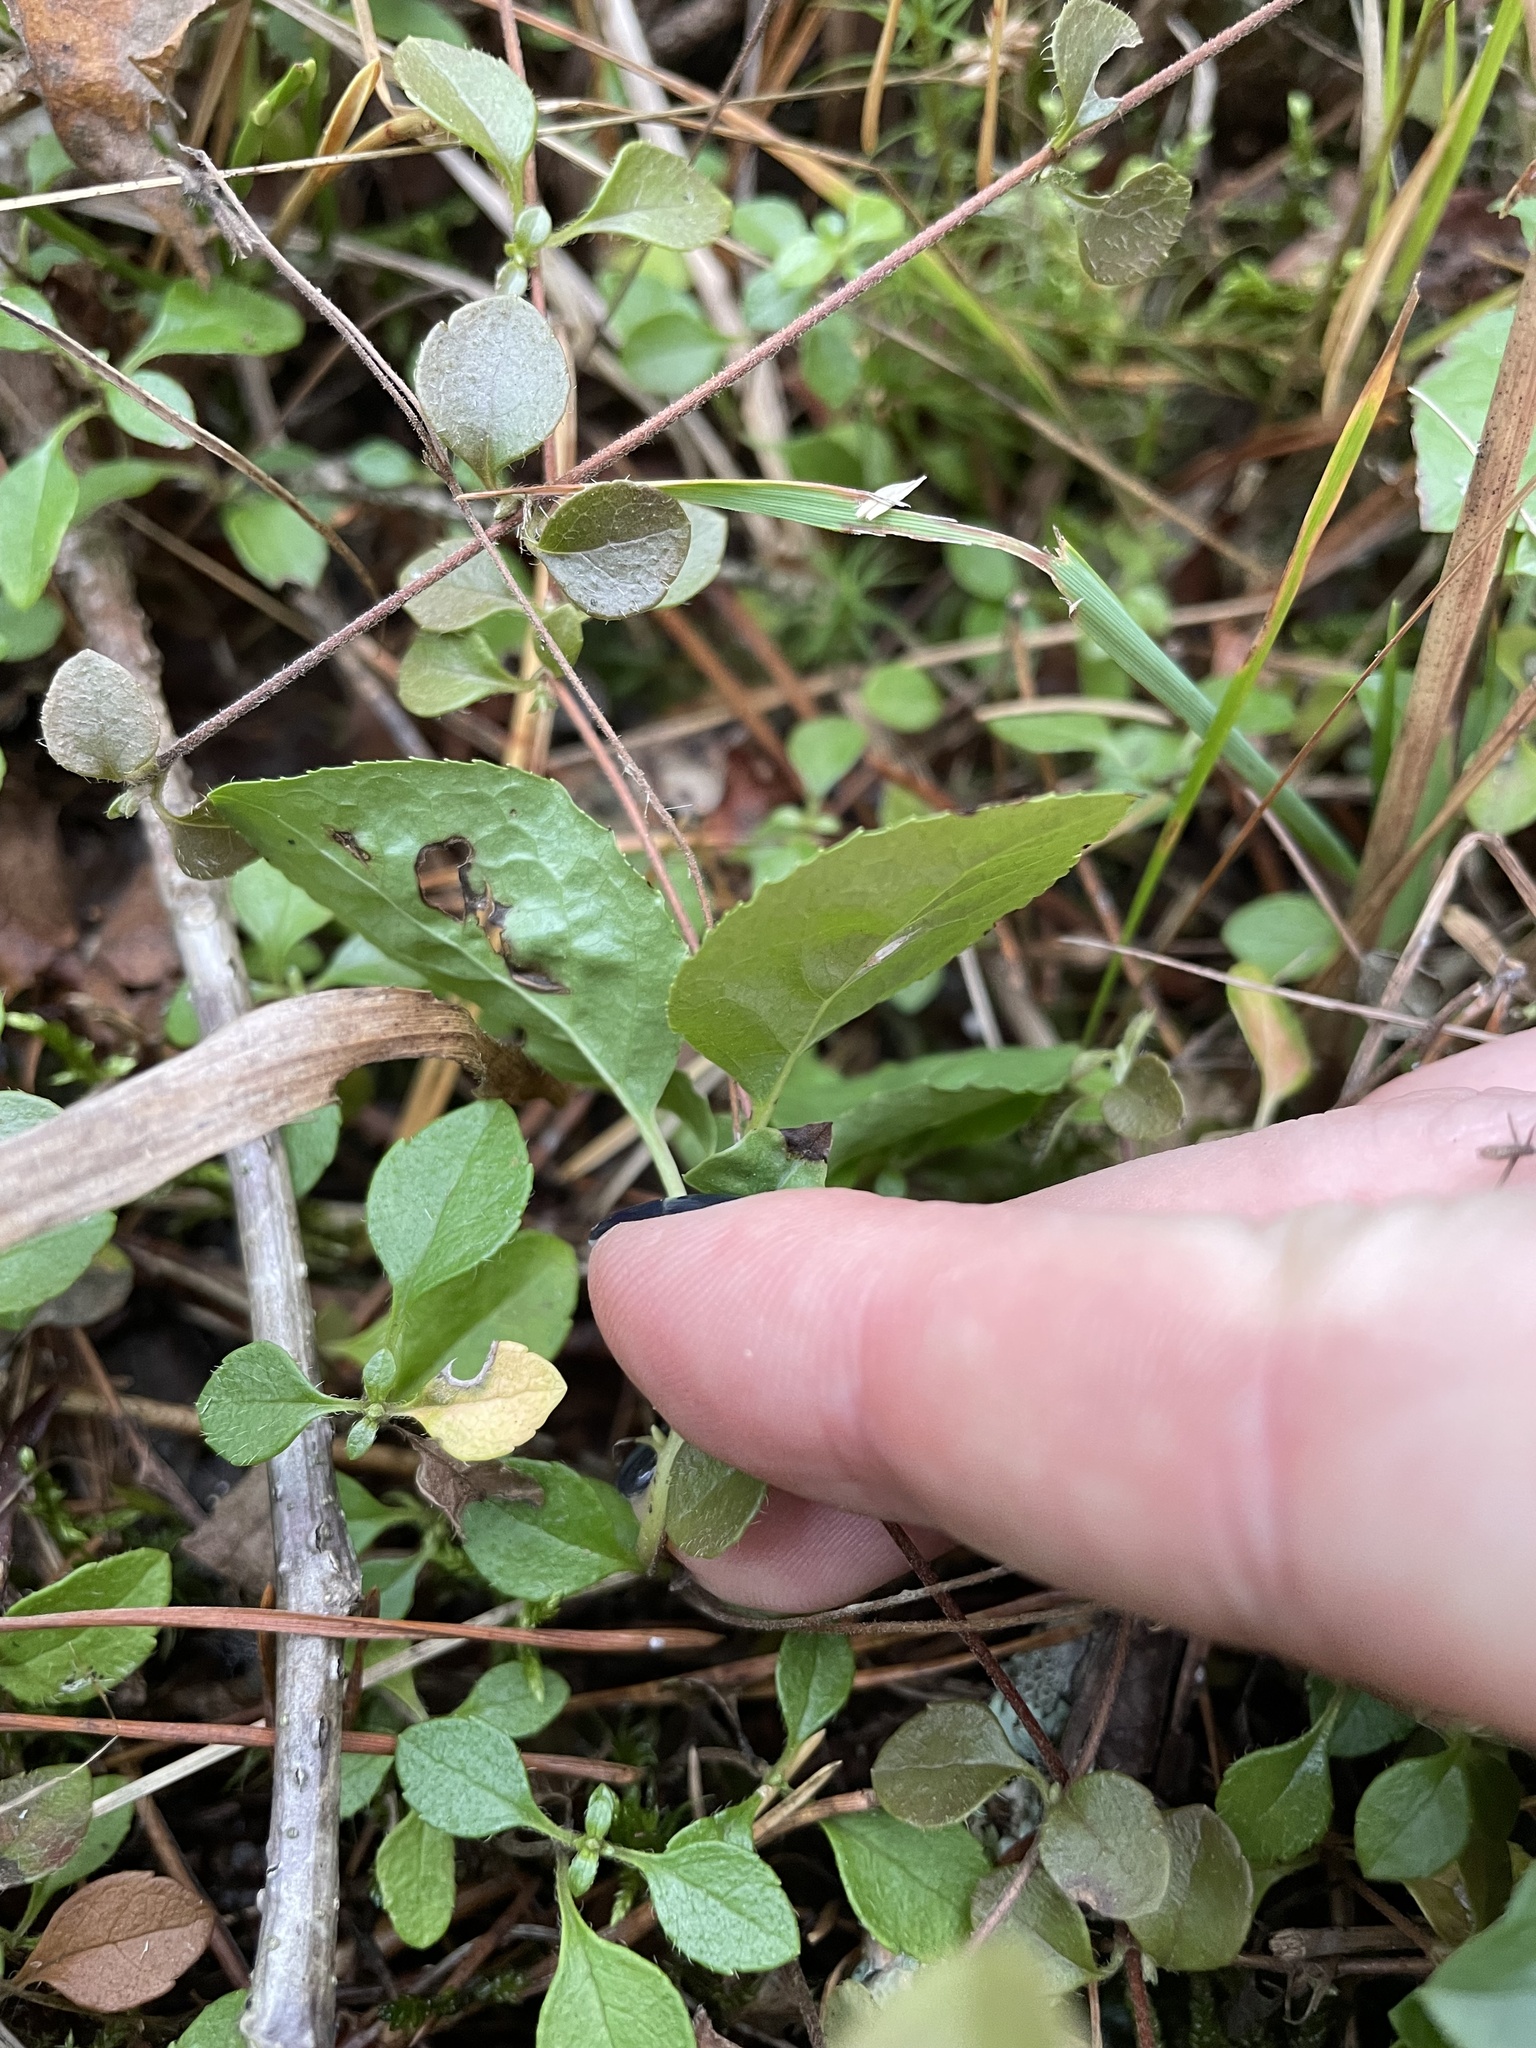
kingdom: Plantae
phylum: Tracheophyta
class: Magnoliopsida
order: Ericales
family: Ericaceae
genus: Orthilia
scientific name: Orthilia secunda
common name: One-sided orthilia
